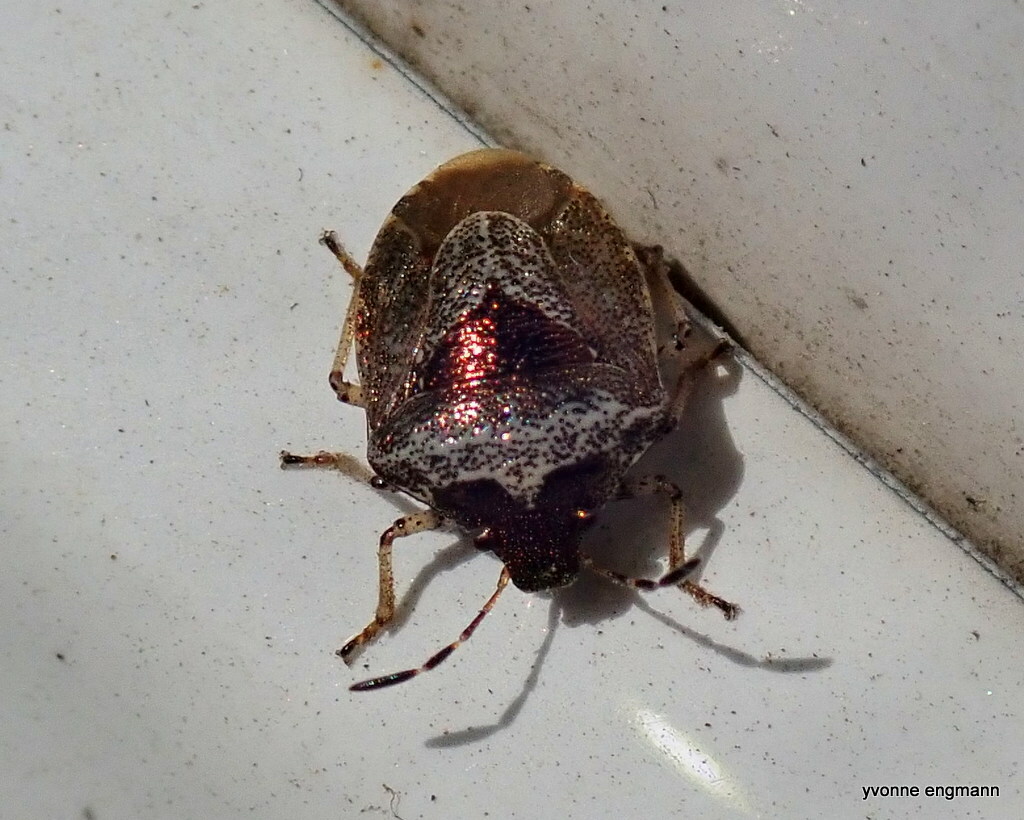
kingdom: Animalia
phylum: Arthropoda
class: Insecta
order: Hemiptera
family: Pentatomidae
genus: Eysarcoris
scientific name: Eysarcoris venustissimus
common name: Woundwort shieldbug
